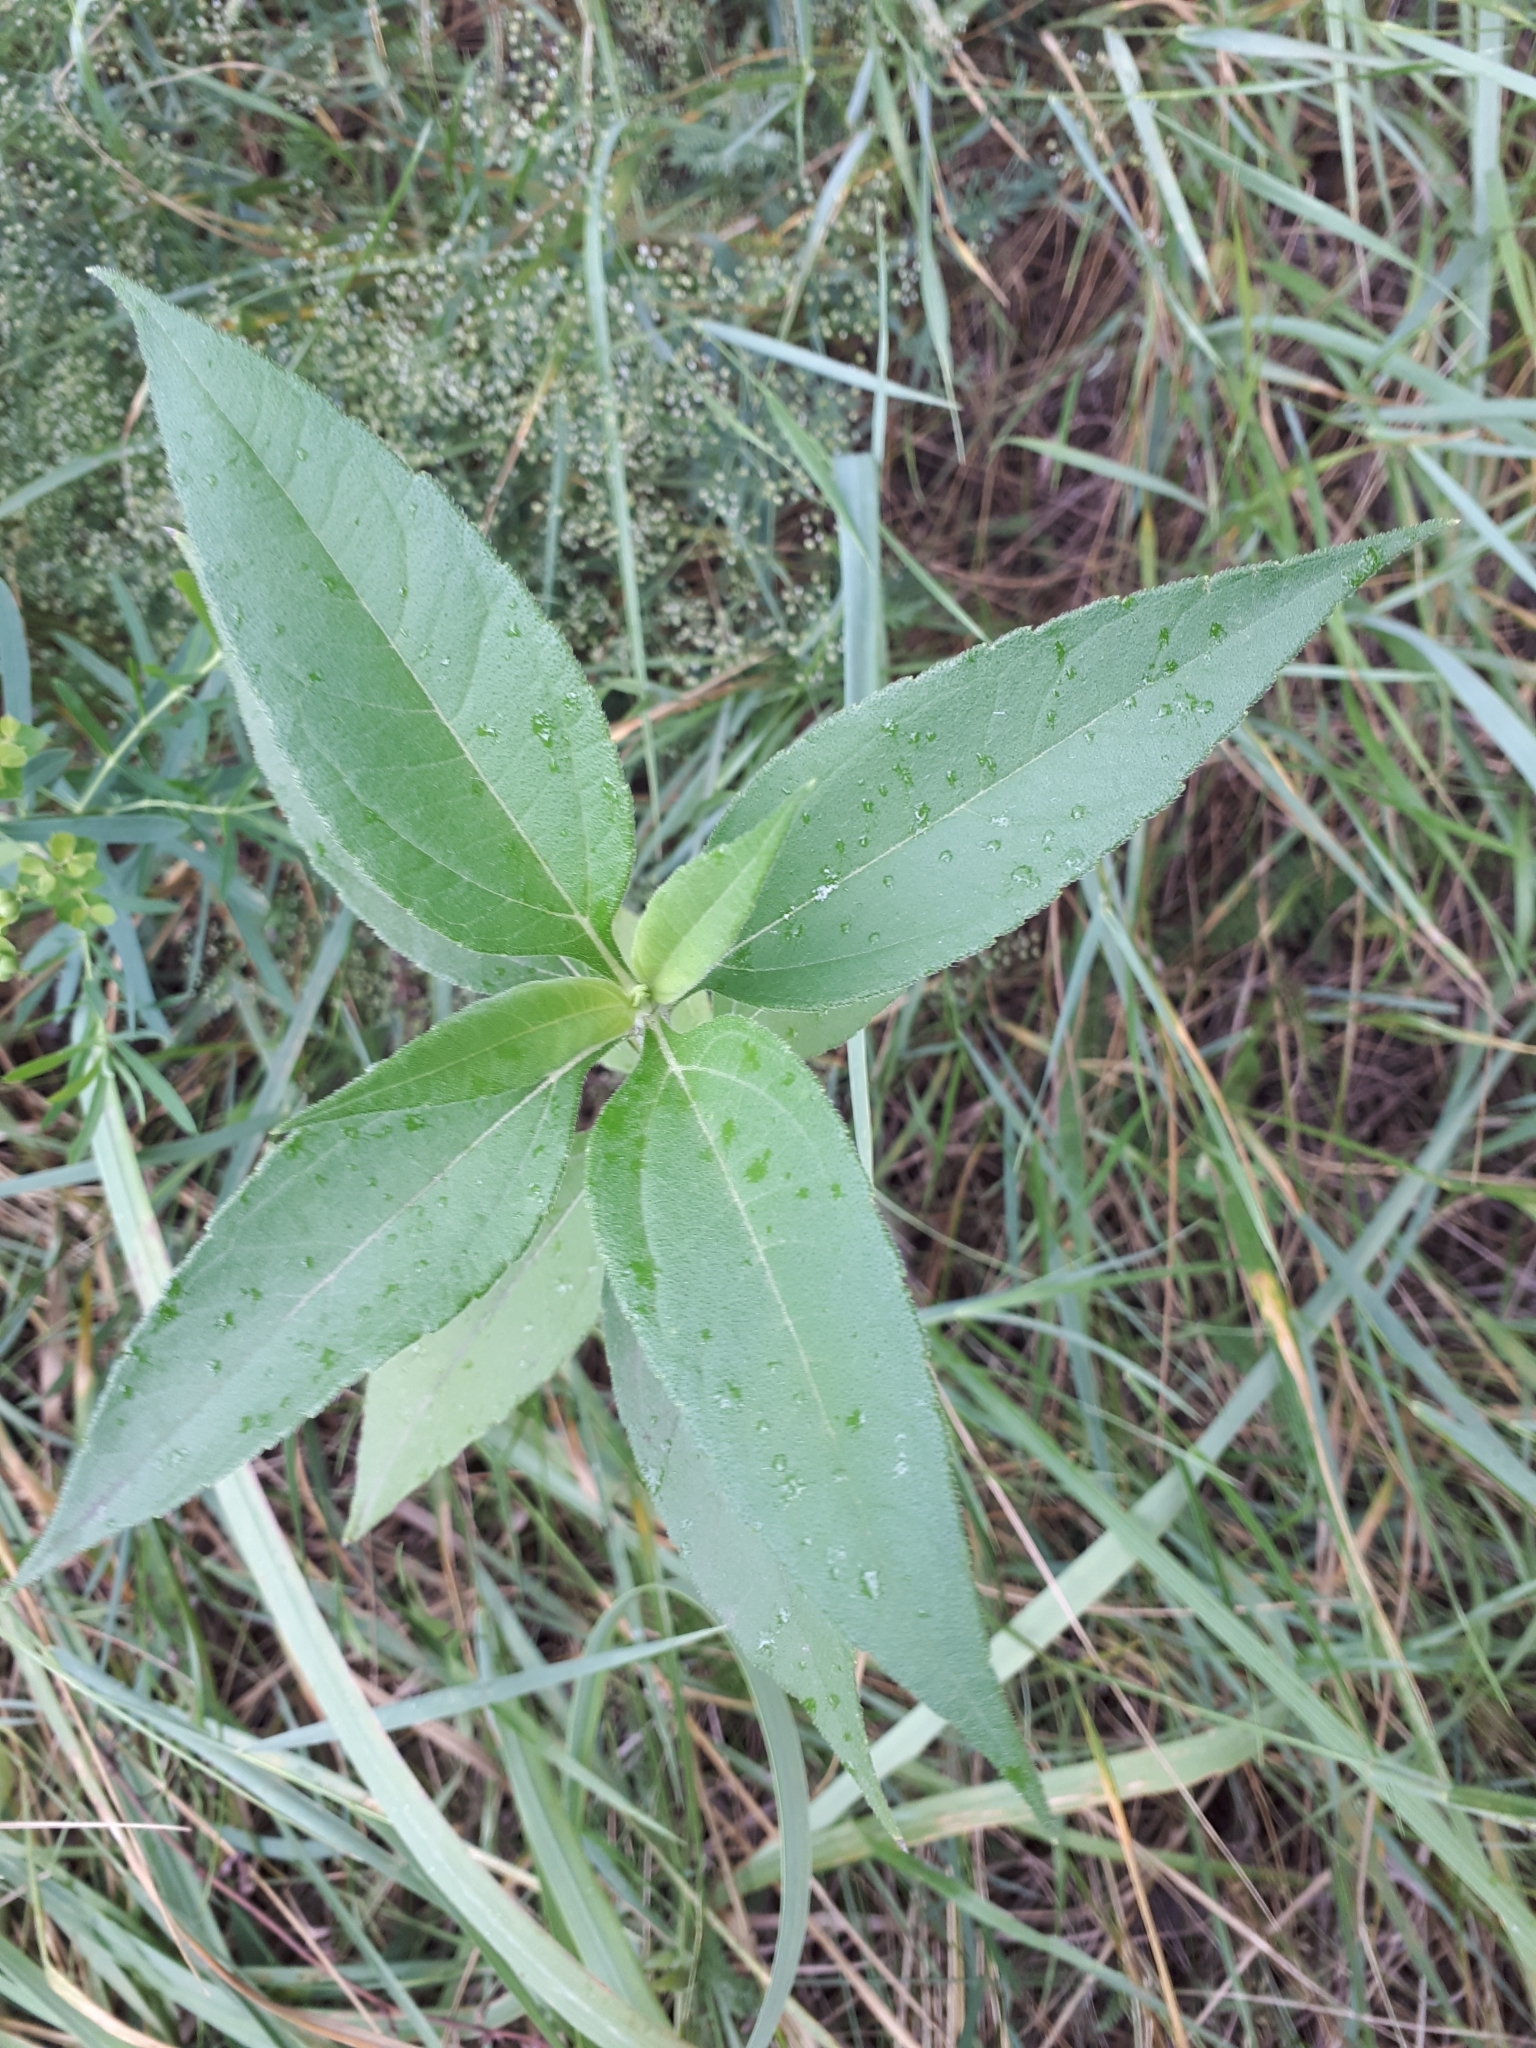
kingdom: Plantae
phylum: Tracheophyta
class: Magnoliopsida
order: Asterales
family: Asteraceae
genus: Helianthus
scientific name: Helianthus tuberosus
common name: Jerusalem artichoke
